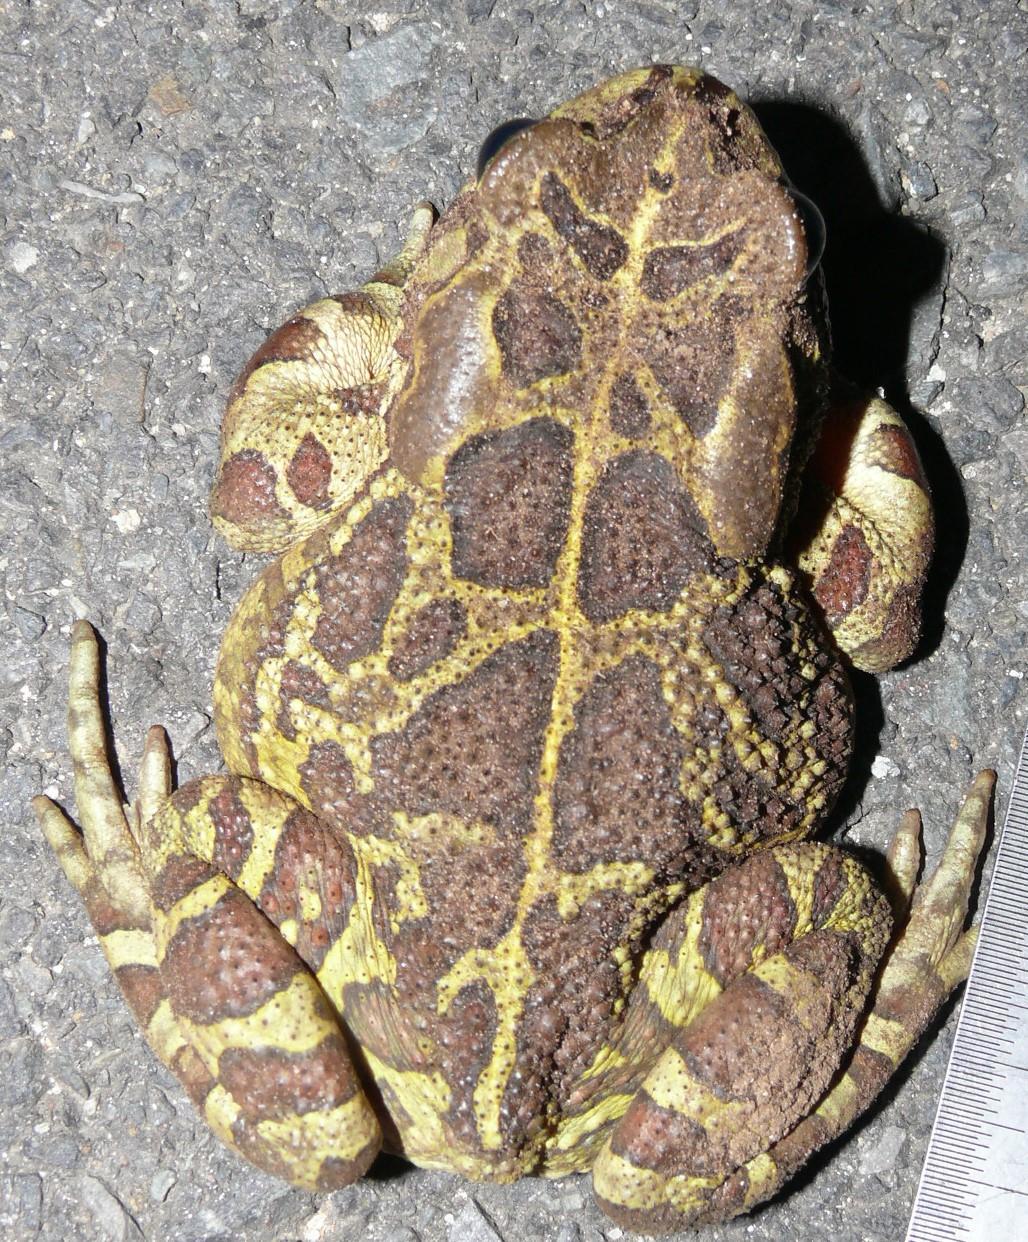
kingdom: Animalia
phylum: Chordata
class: Amphibia
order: Anura
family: Bufonidae
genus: Sclerophrys
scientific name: Sclerophrys pantherina
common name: Panther toad
